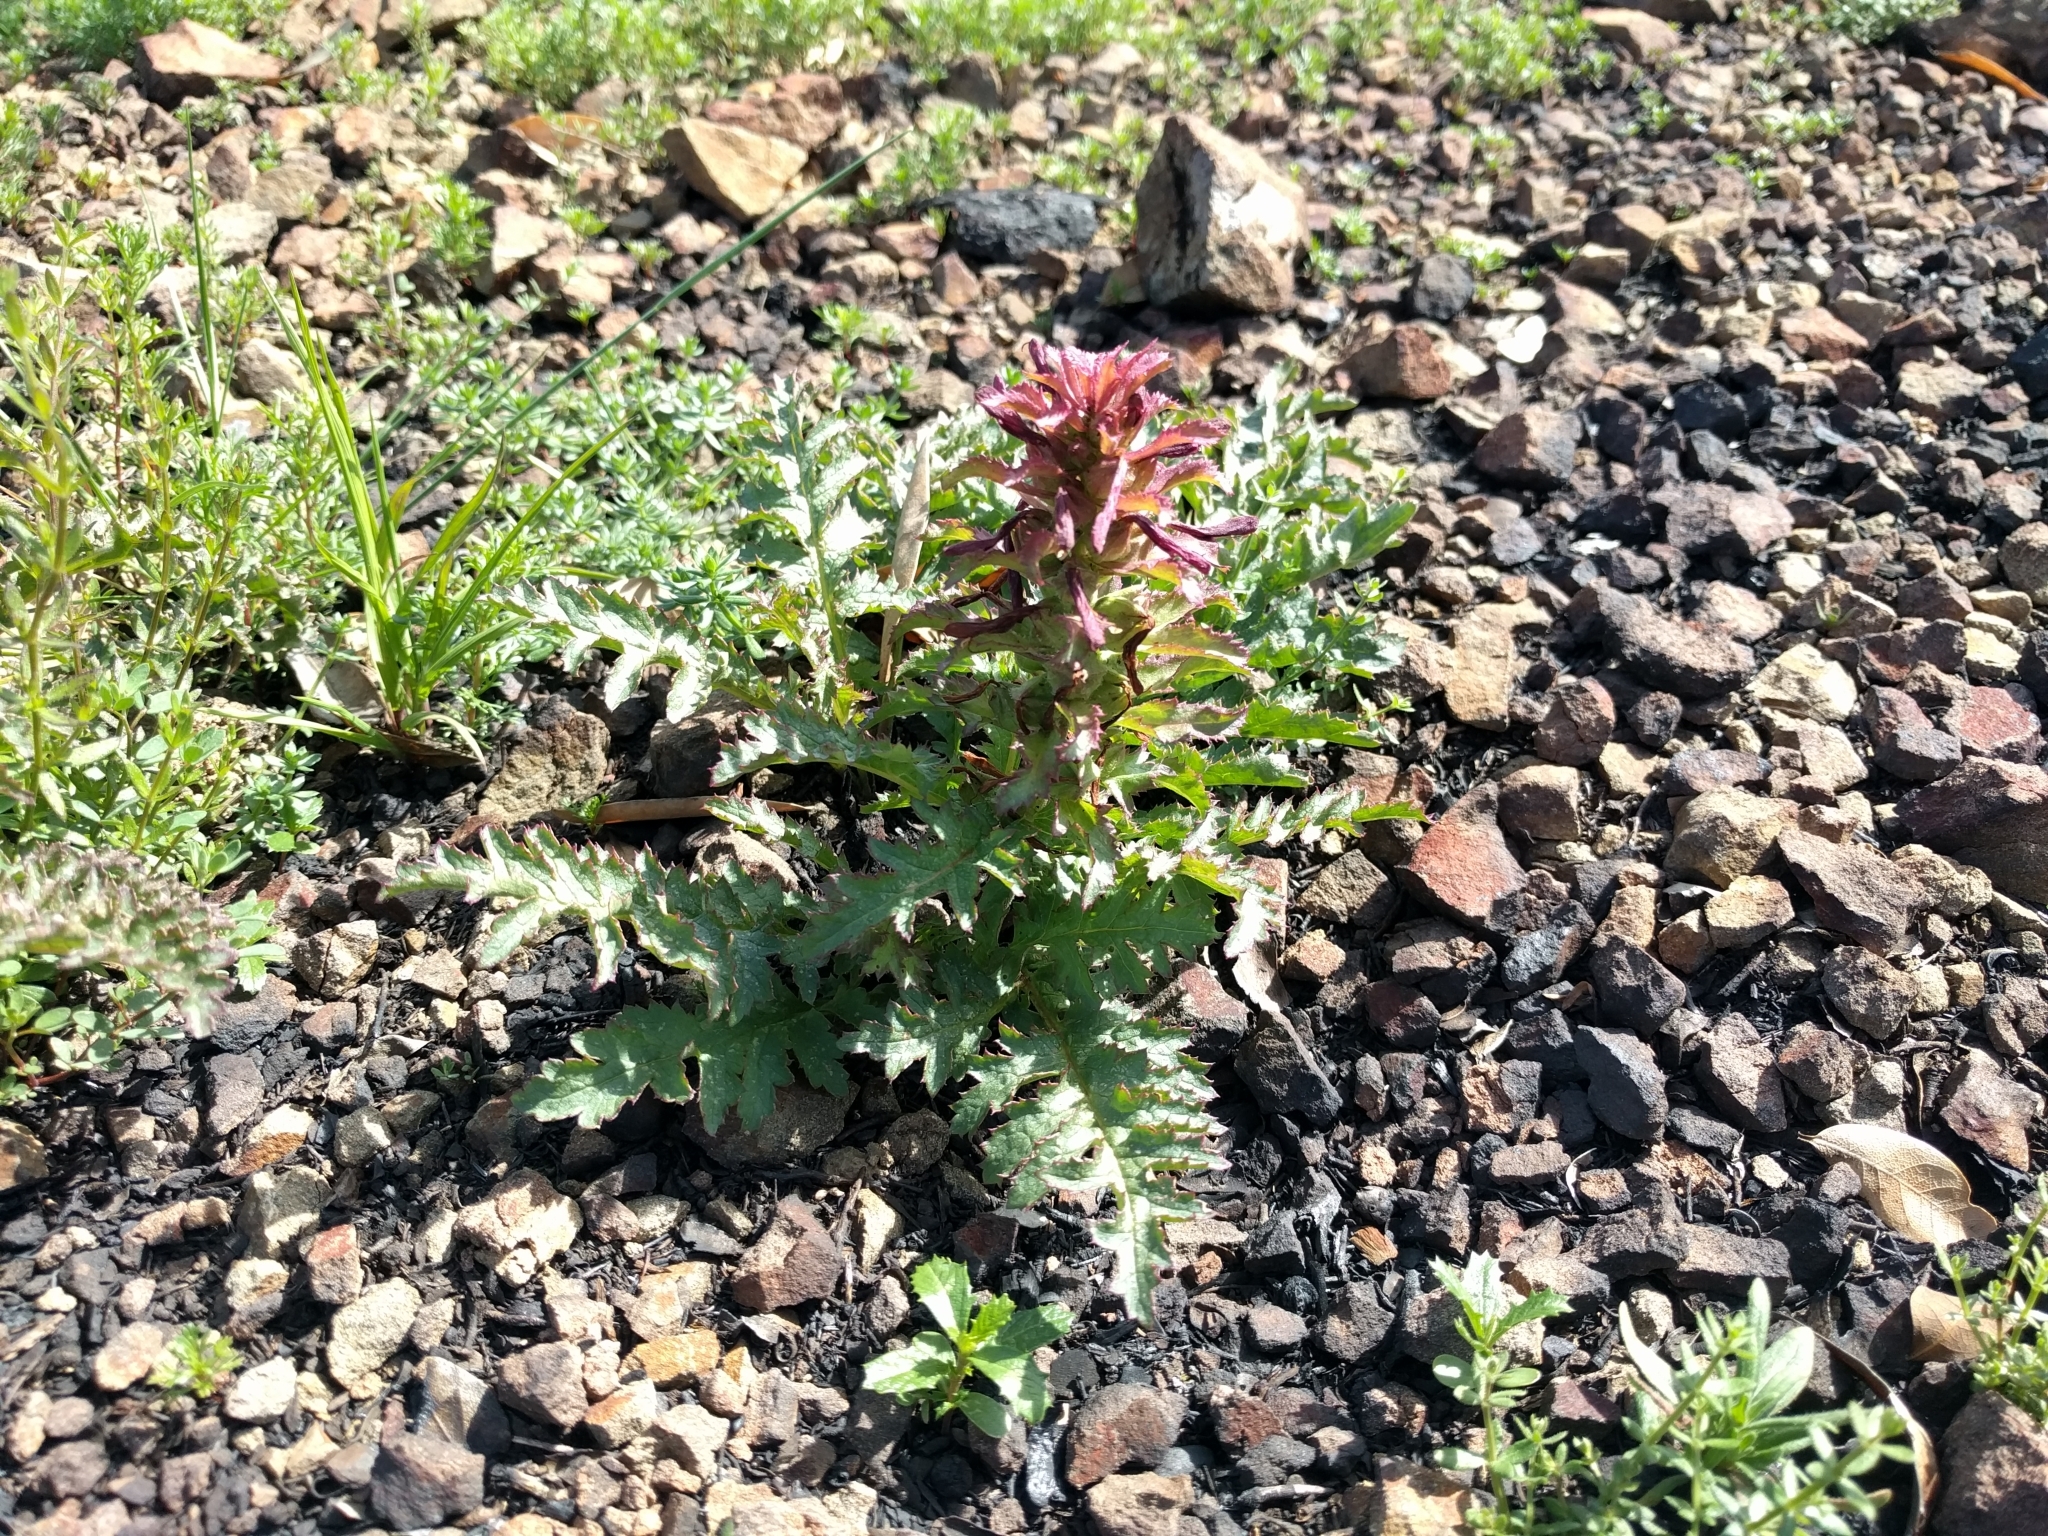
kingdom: Plantae
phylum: Tracheophyta
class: Magnoliopsida
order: Lamiales
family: Orobanchaceae
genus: Pedicularis
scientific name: Pedicularis densiflora
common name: Indian warrior
